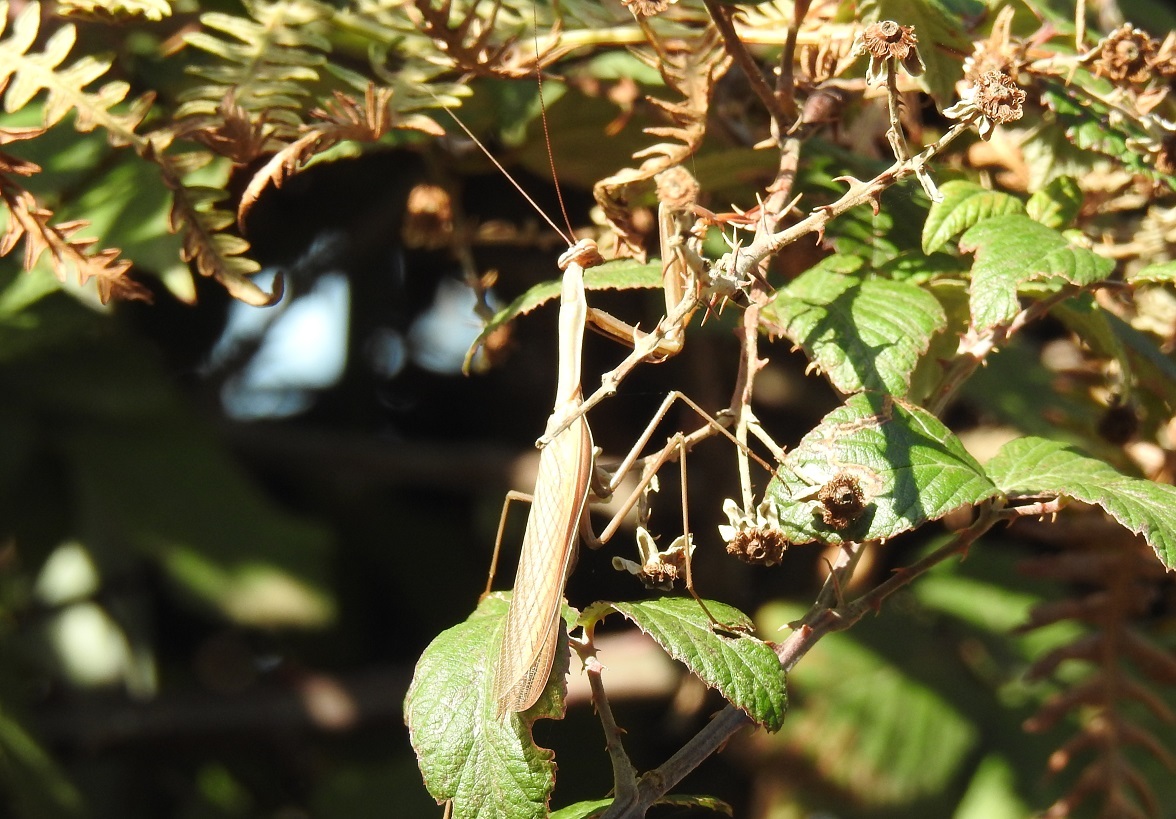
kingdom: Animalia
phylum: Arthropoda
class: Insecta
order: Mantodea
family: Mantidae
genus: Mantis
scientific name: Mantis religiosa
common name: Praying mantis
